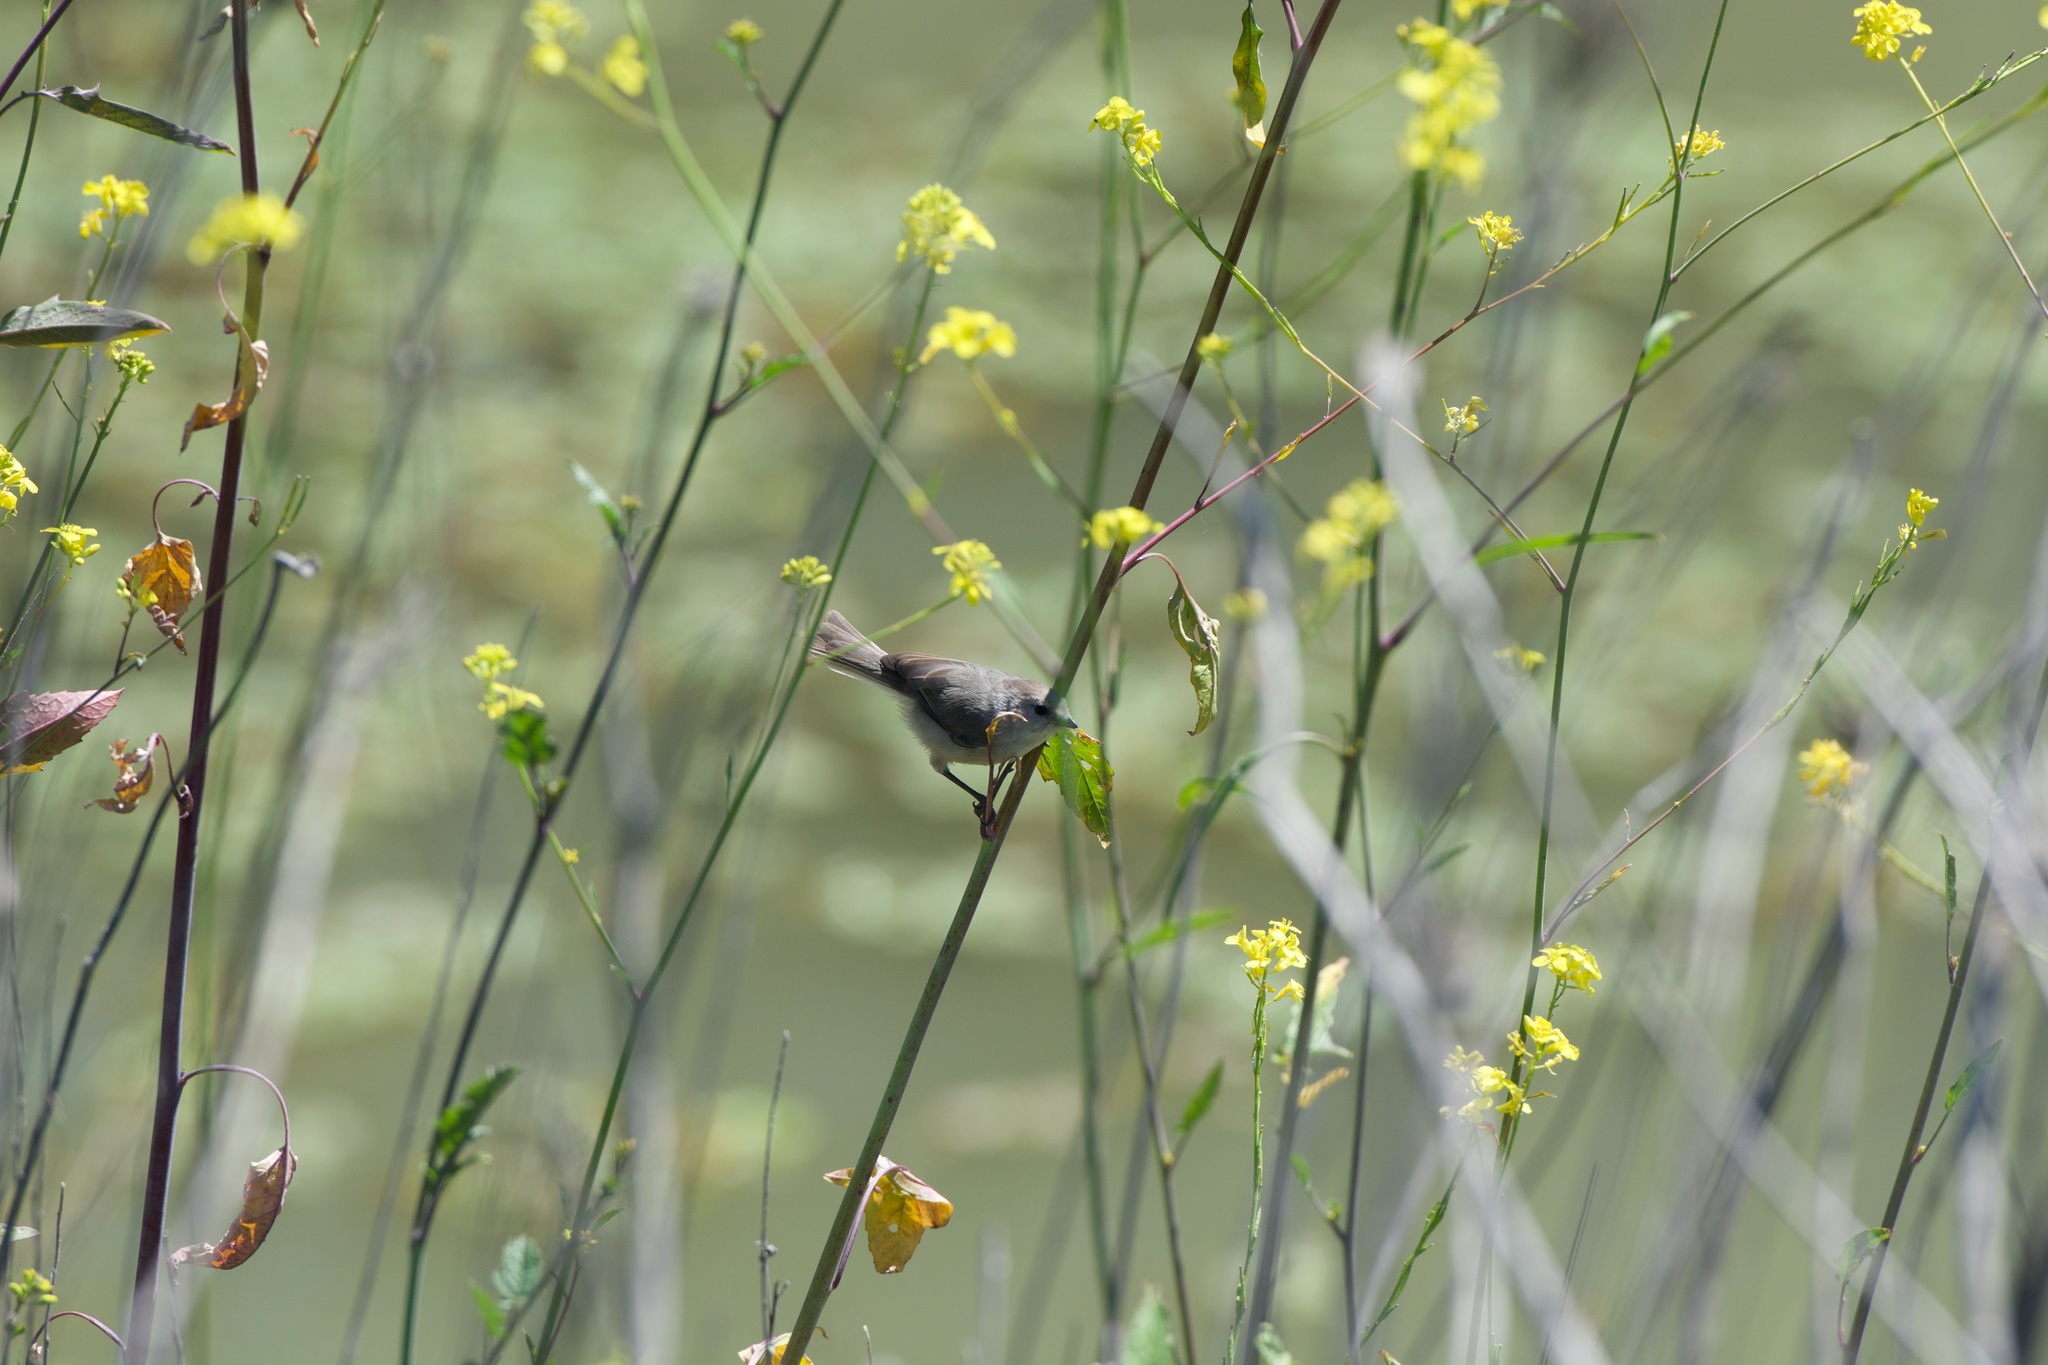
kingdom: Animalia
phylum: Chordata
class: Aves
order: Passeriformes
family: Aegithalidae
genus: Psaltriparus
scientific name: Psaltriparus minimus
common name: American bushtit
